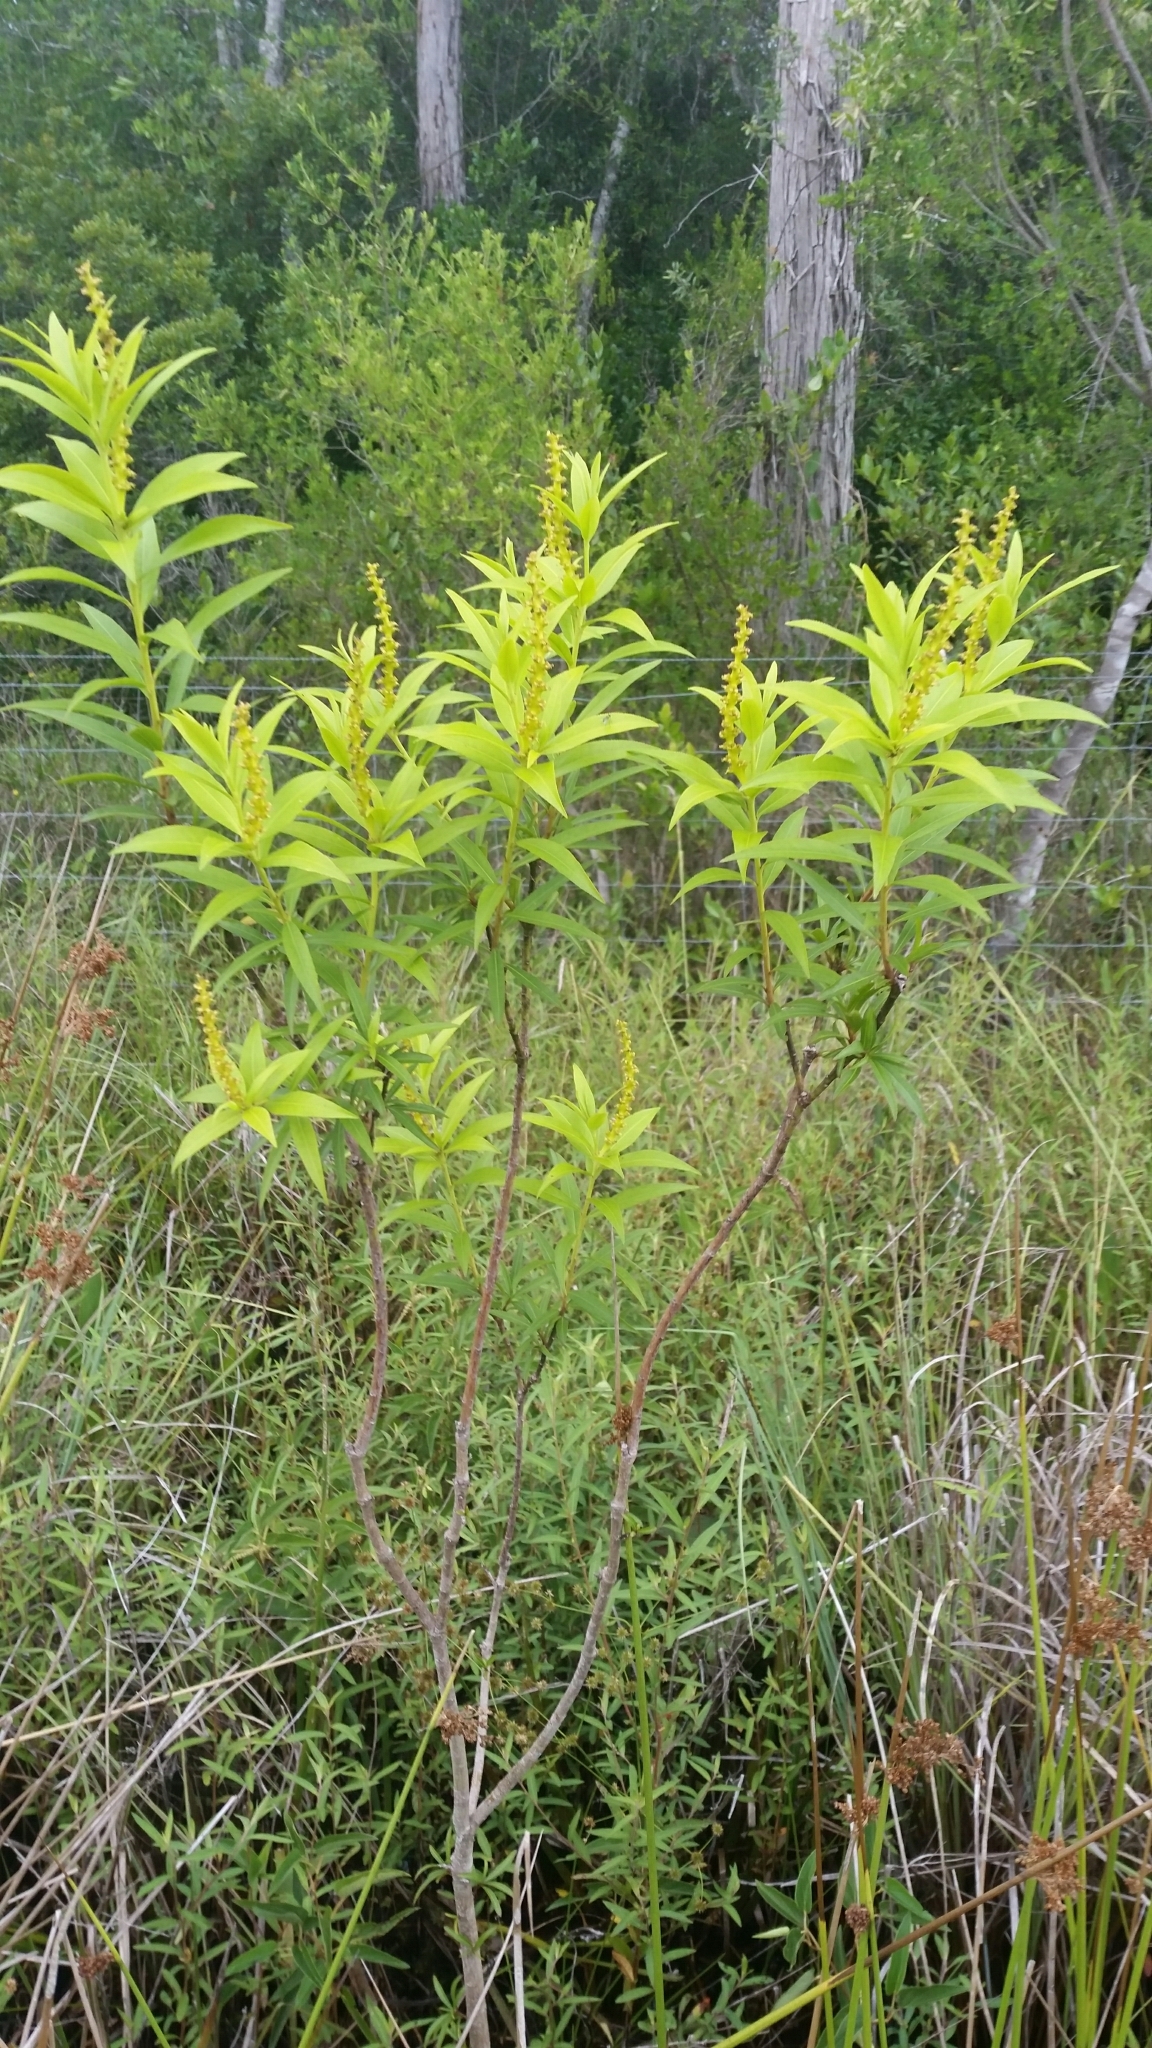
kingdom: Plantae
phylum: Tracheophyta
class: Magnoliopsida
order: Malpighiales
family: Euphorbiaceae
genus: Stillingia
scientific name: Stillingia aquatica
